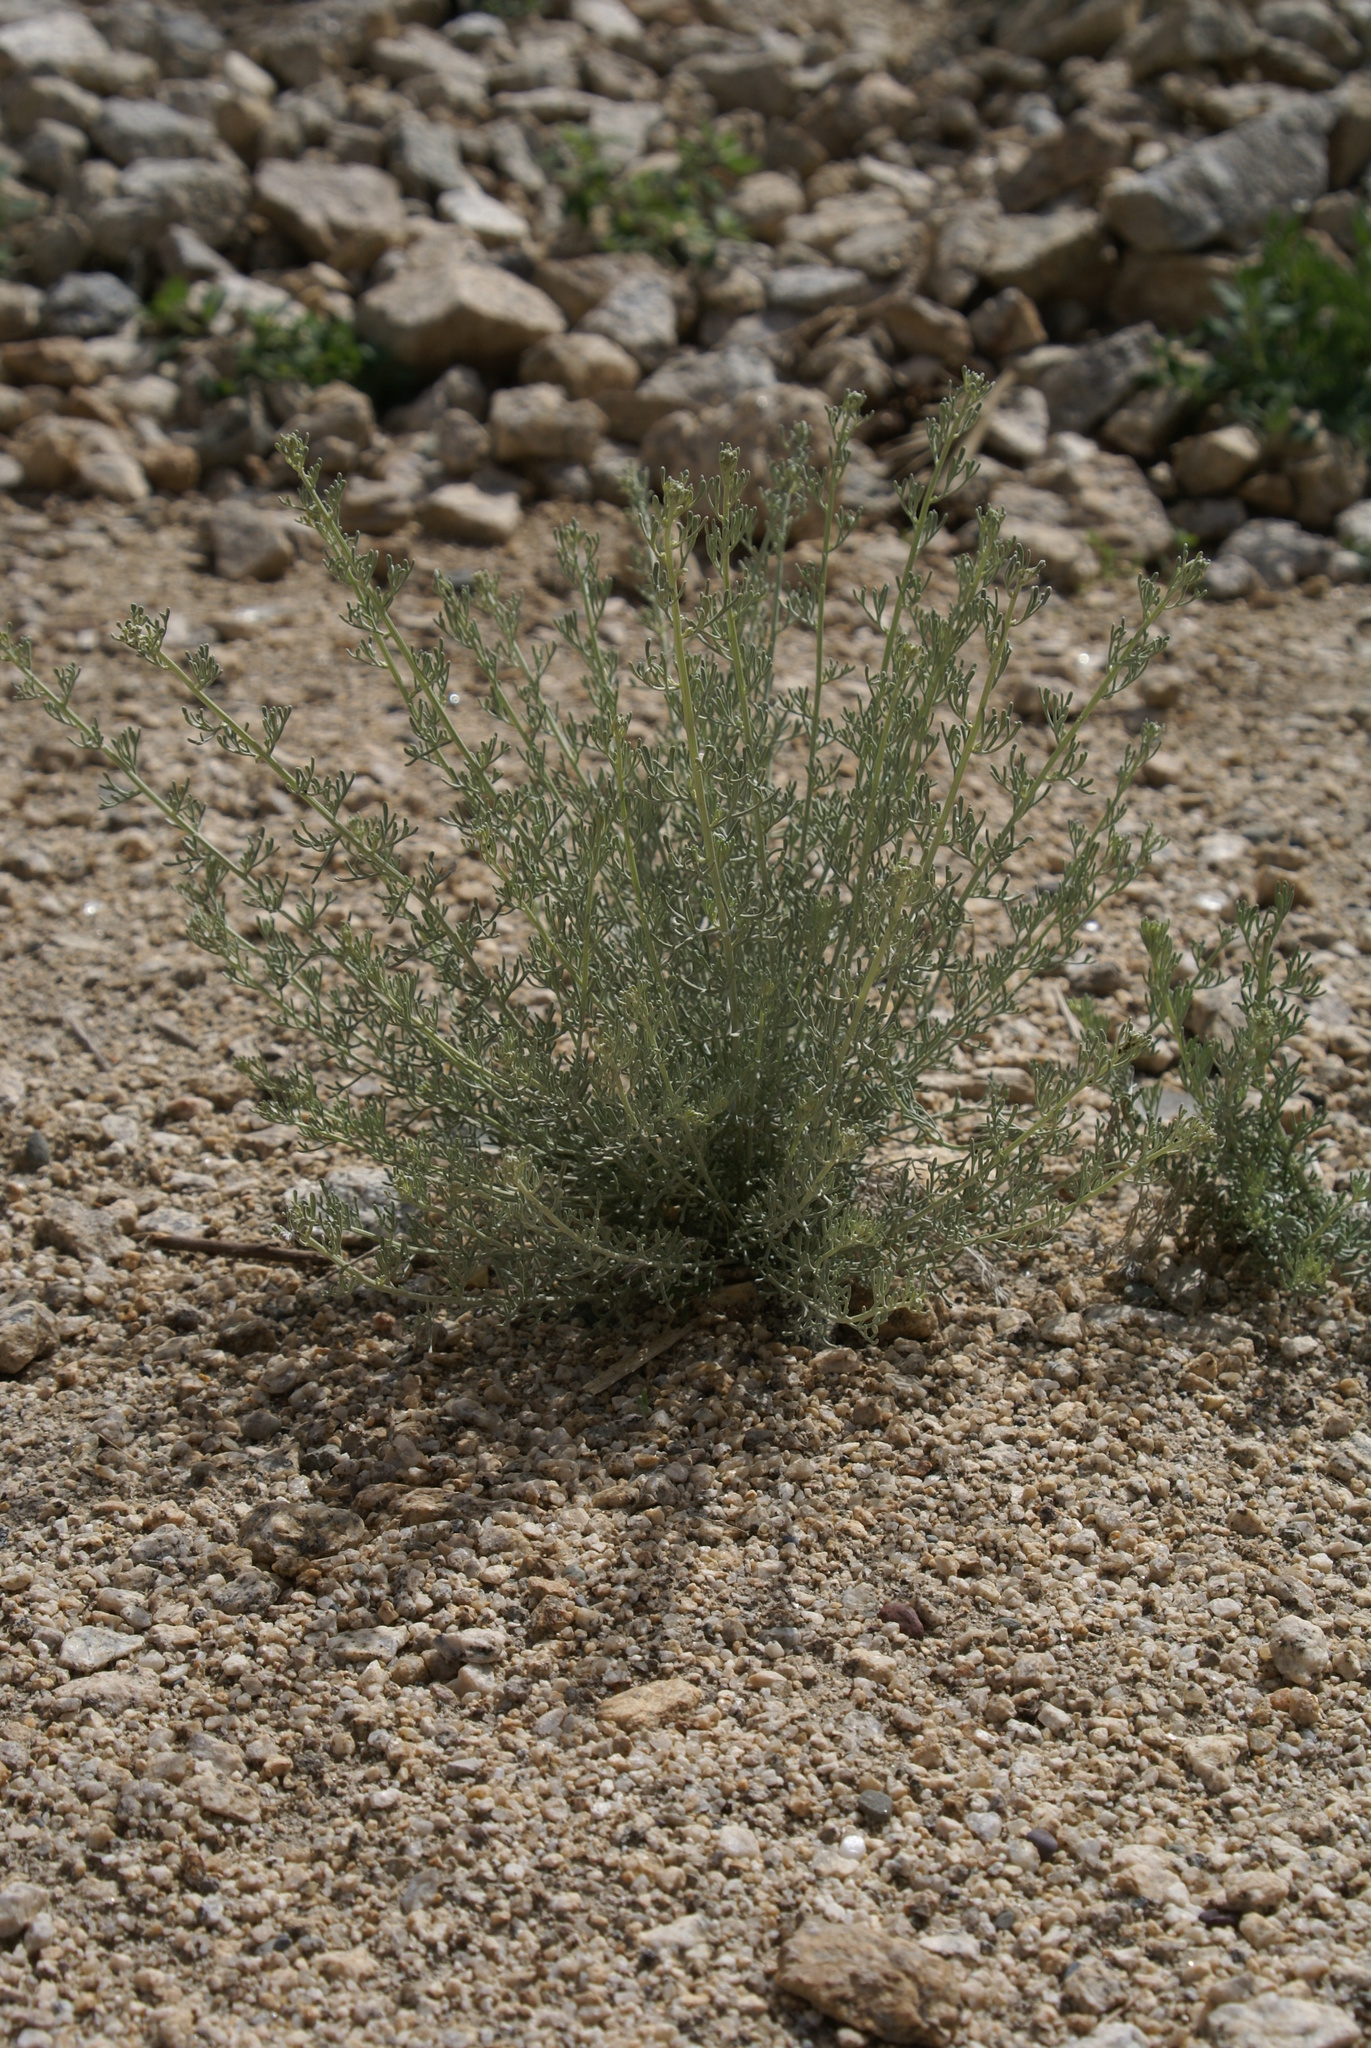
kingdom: Plantae
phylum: Tracheophyta
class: Magnoliopsida
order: Asterales
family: Asteraceae
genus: Ajania
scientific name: Ajania fruticulosa
